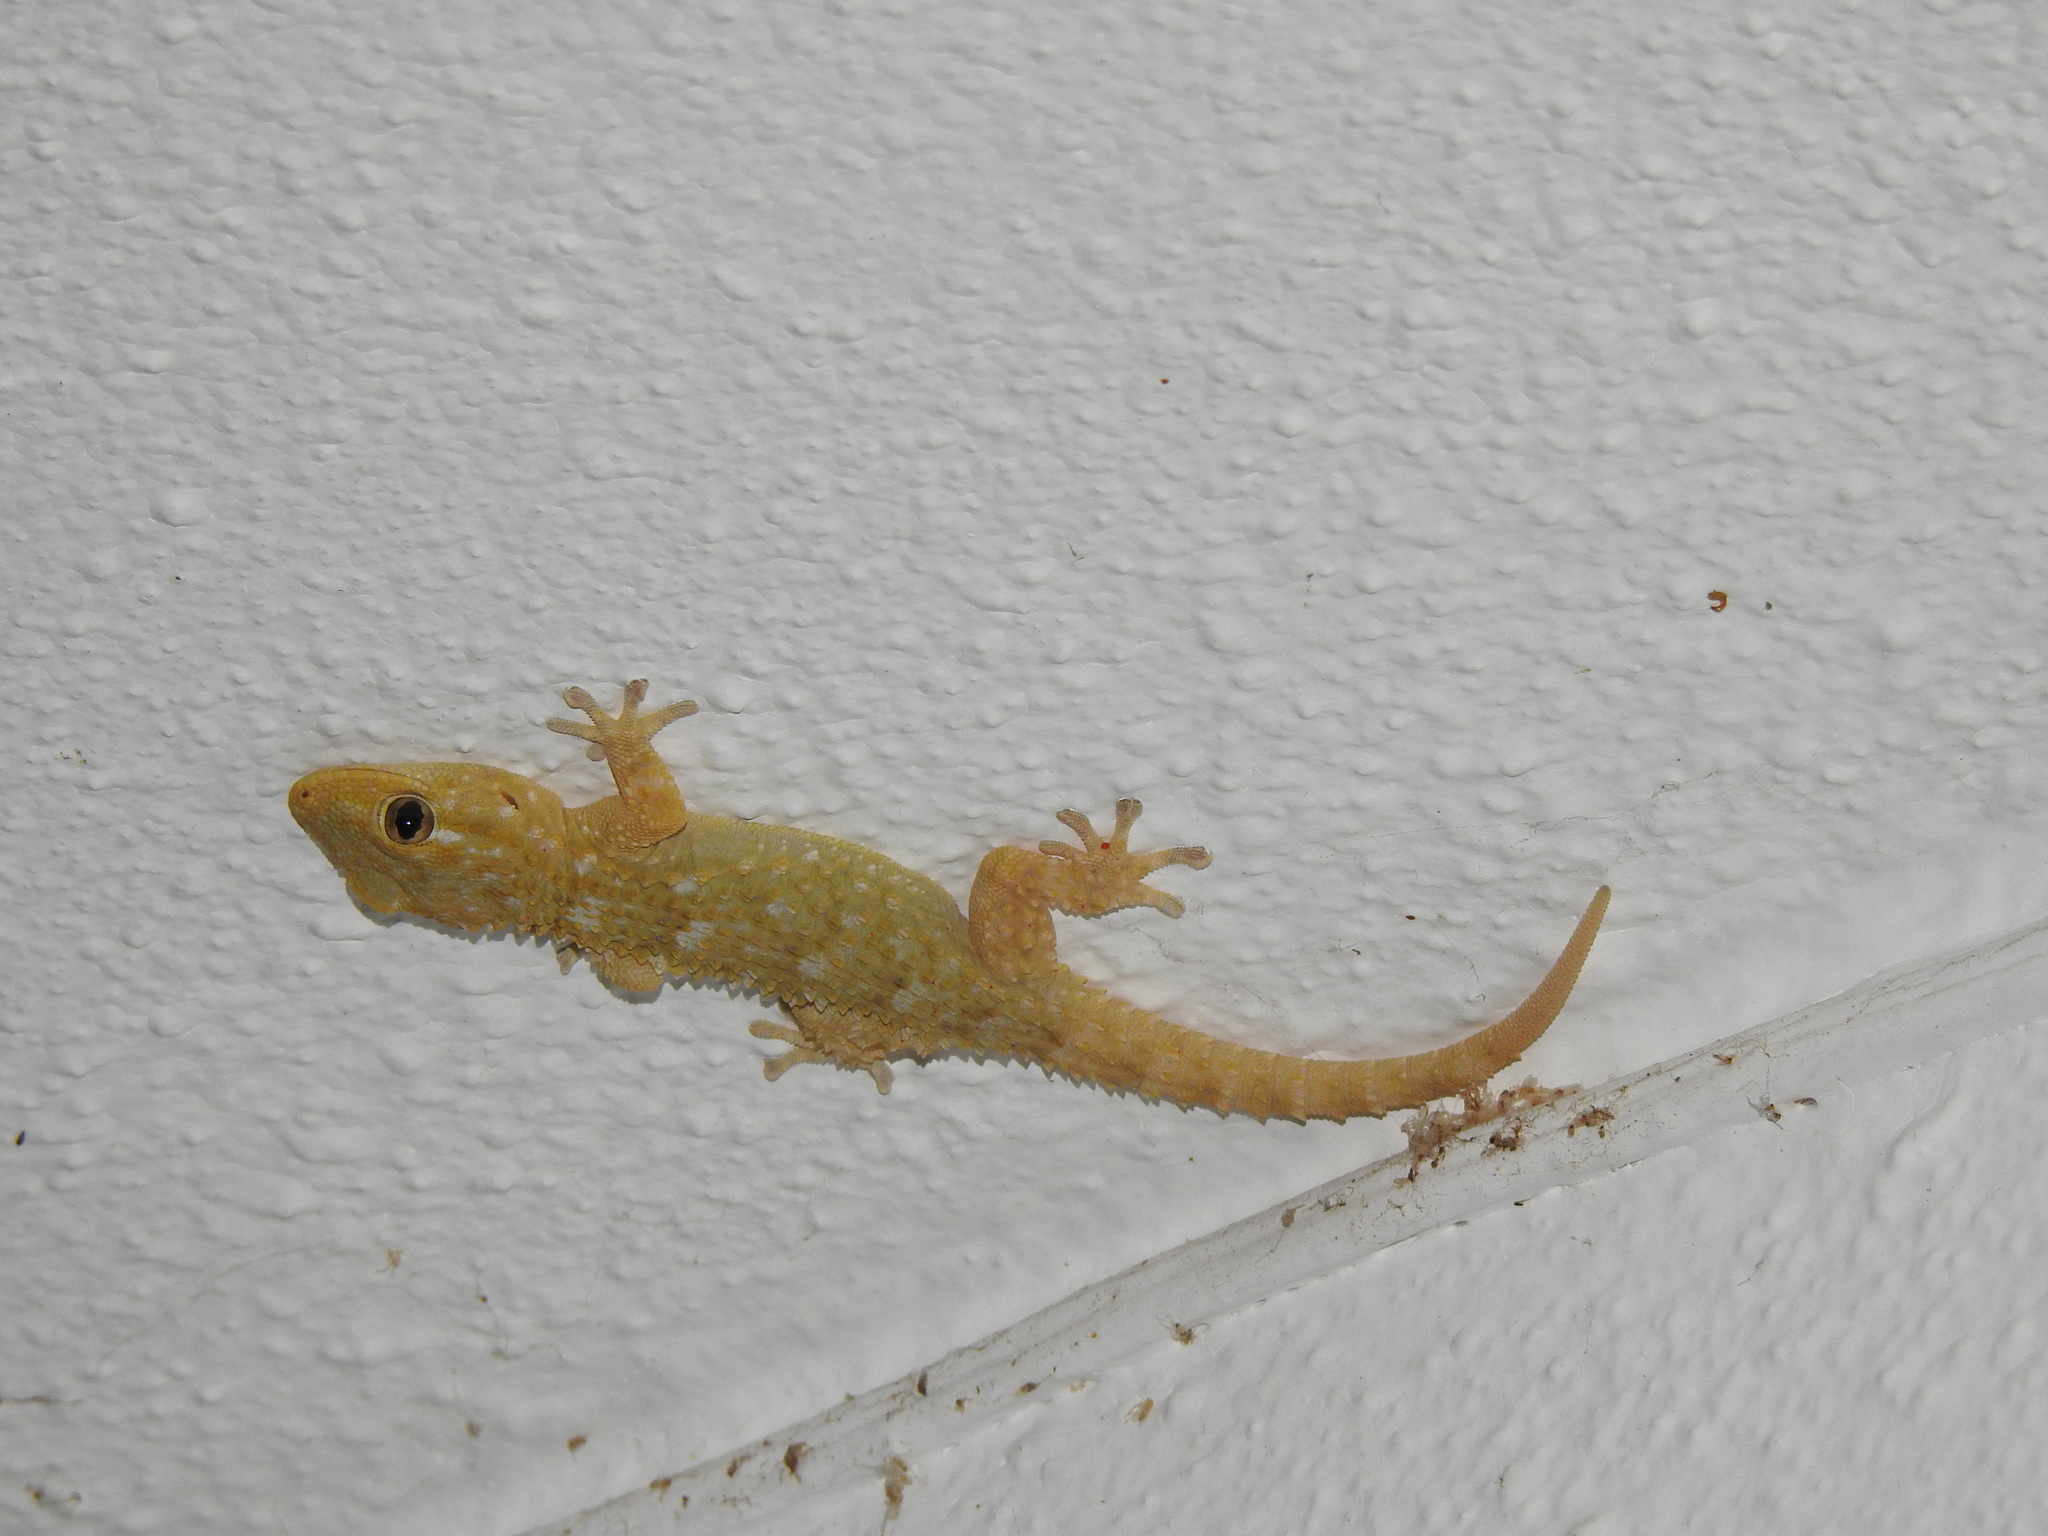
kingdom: Animalia
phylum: Chordata
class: Squamata
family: Phyllodactylidae
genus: Tarentola
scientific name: Tarentola mauritanica
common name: Moorish gecko
